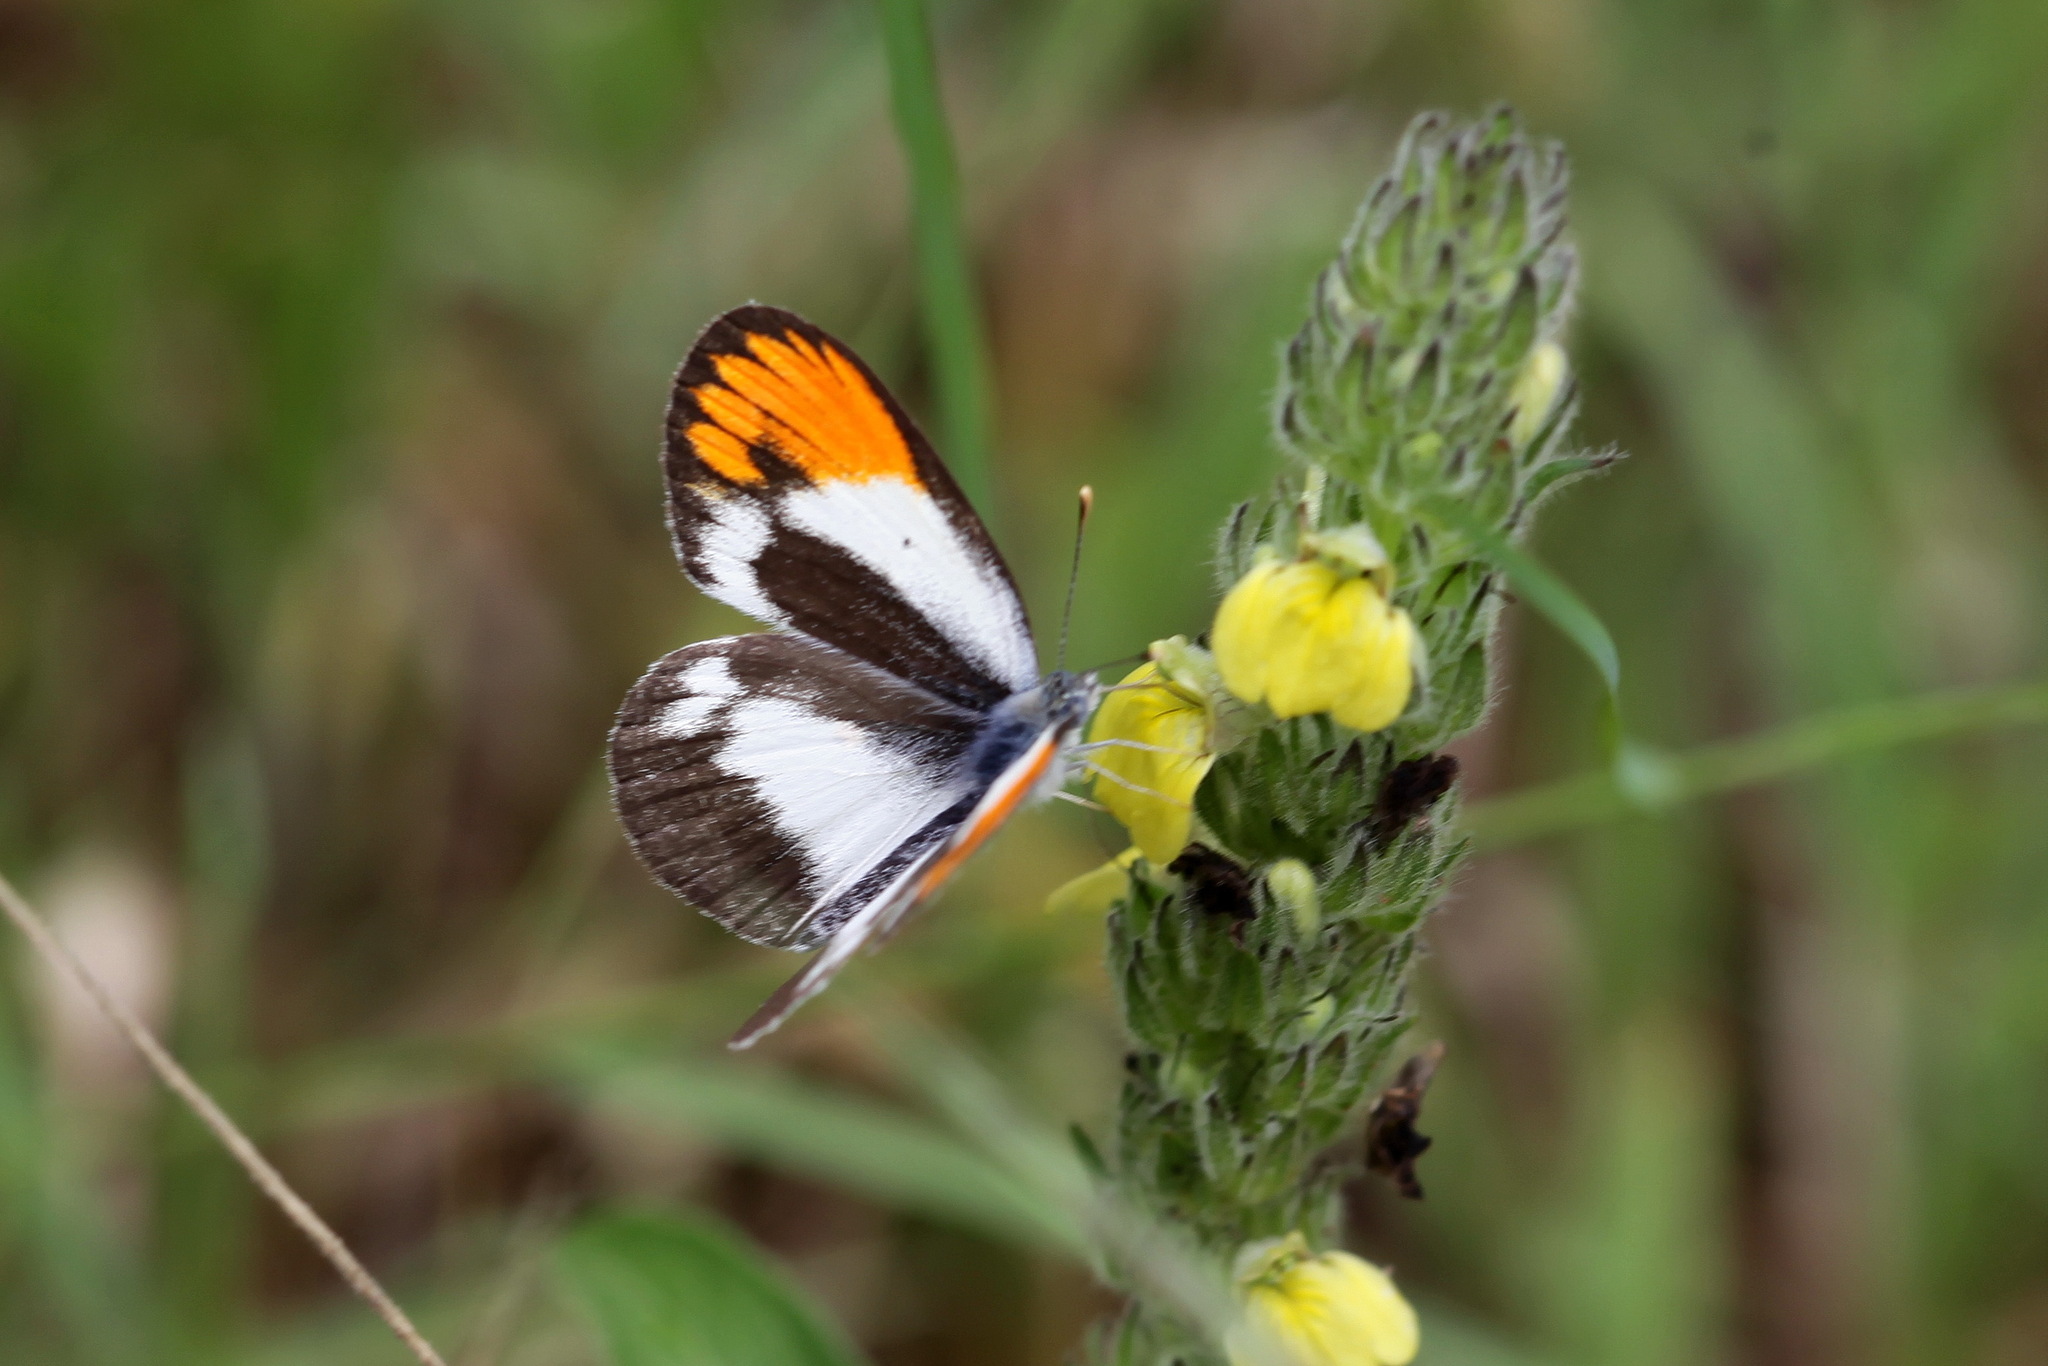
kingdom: Animalia
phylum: Arthropoda
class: Insecta
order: Lepidoptera
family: Pieridae
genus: Colotis
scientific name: Colotis evagore
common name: Desert orange-tip
